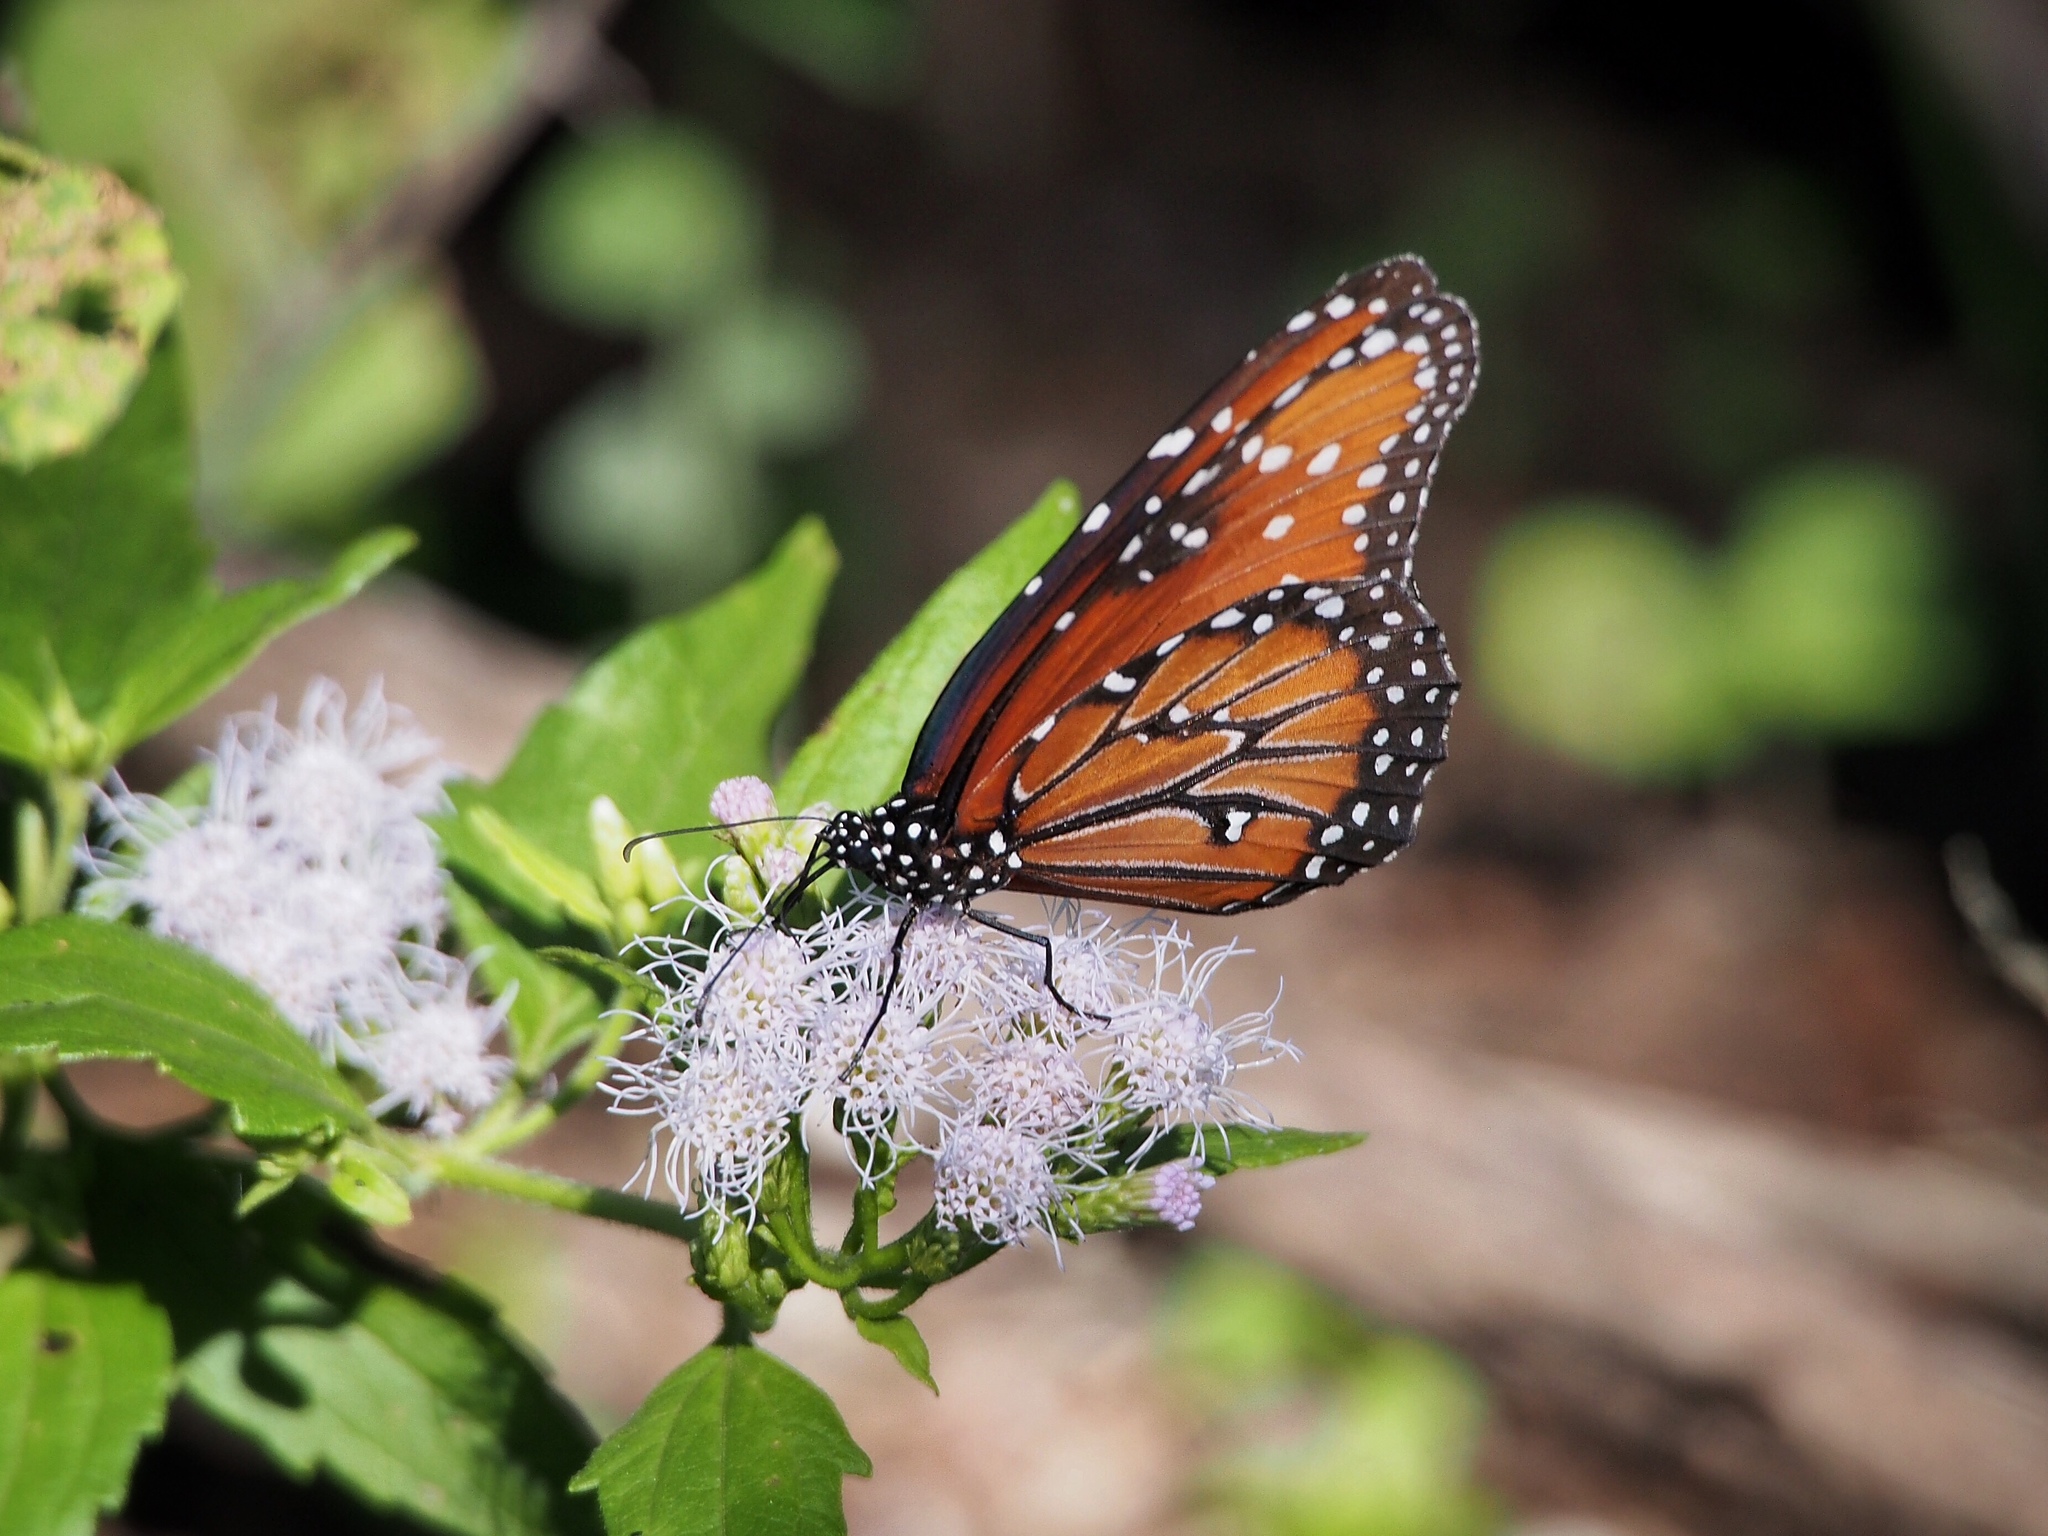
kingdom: Animalia
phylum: Arthropoda
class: Insecta
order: Lepidoptera
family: Nymphalidae
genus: Danaus
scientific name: Danaus gilippus
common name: Queen
